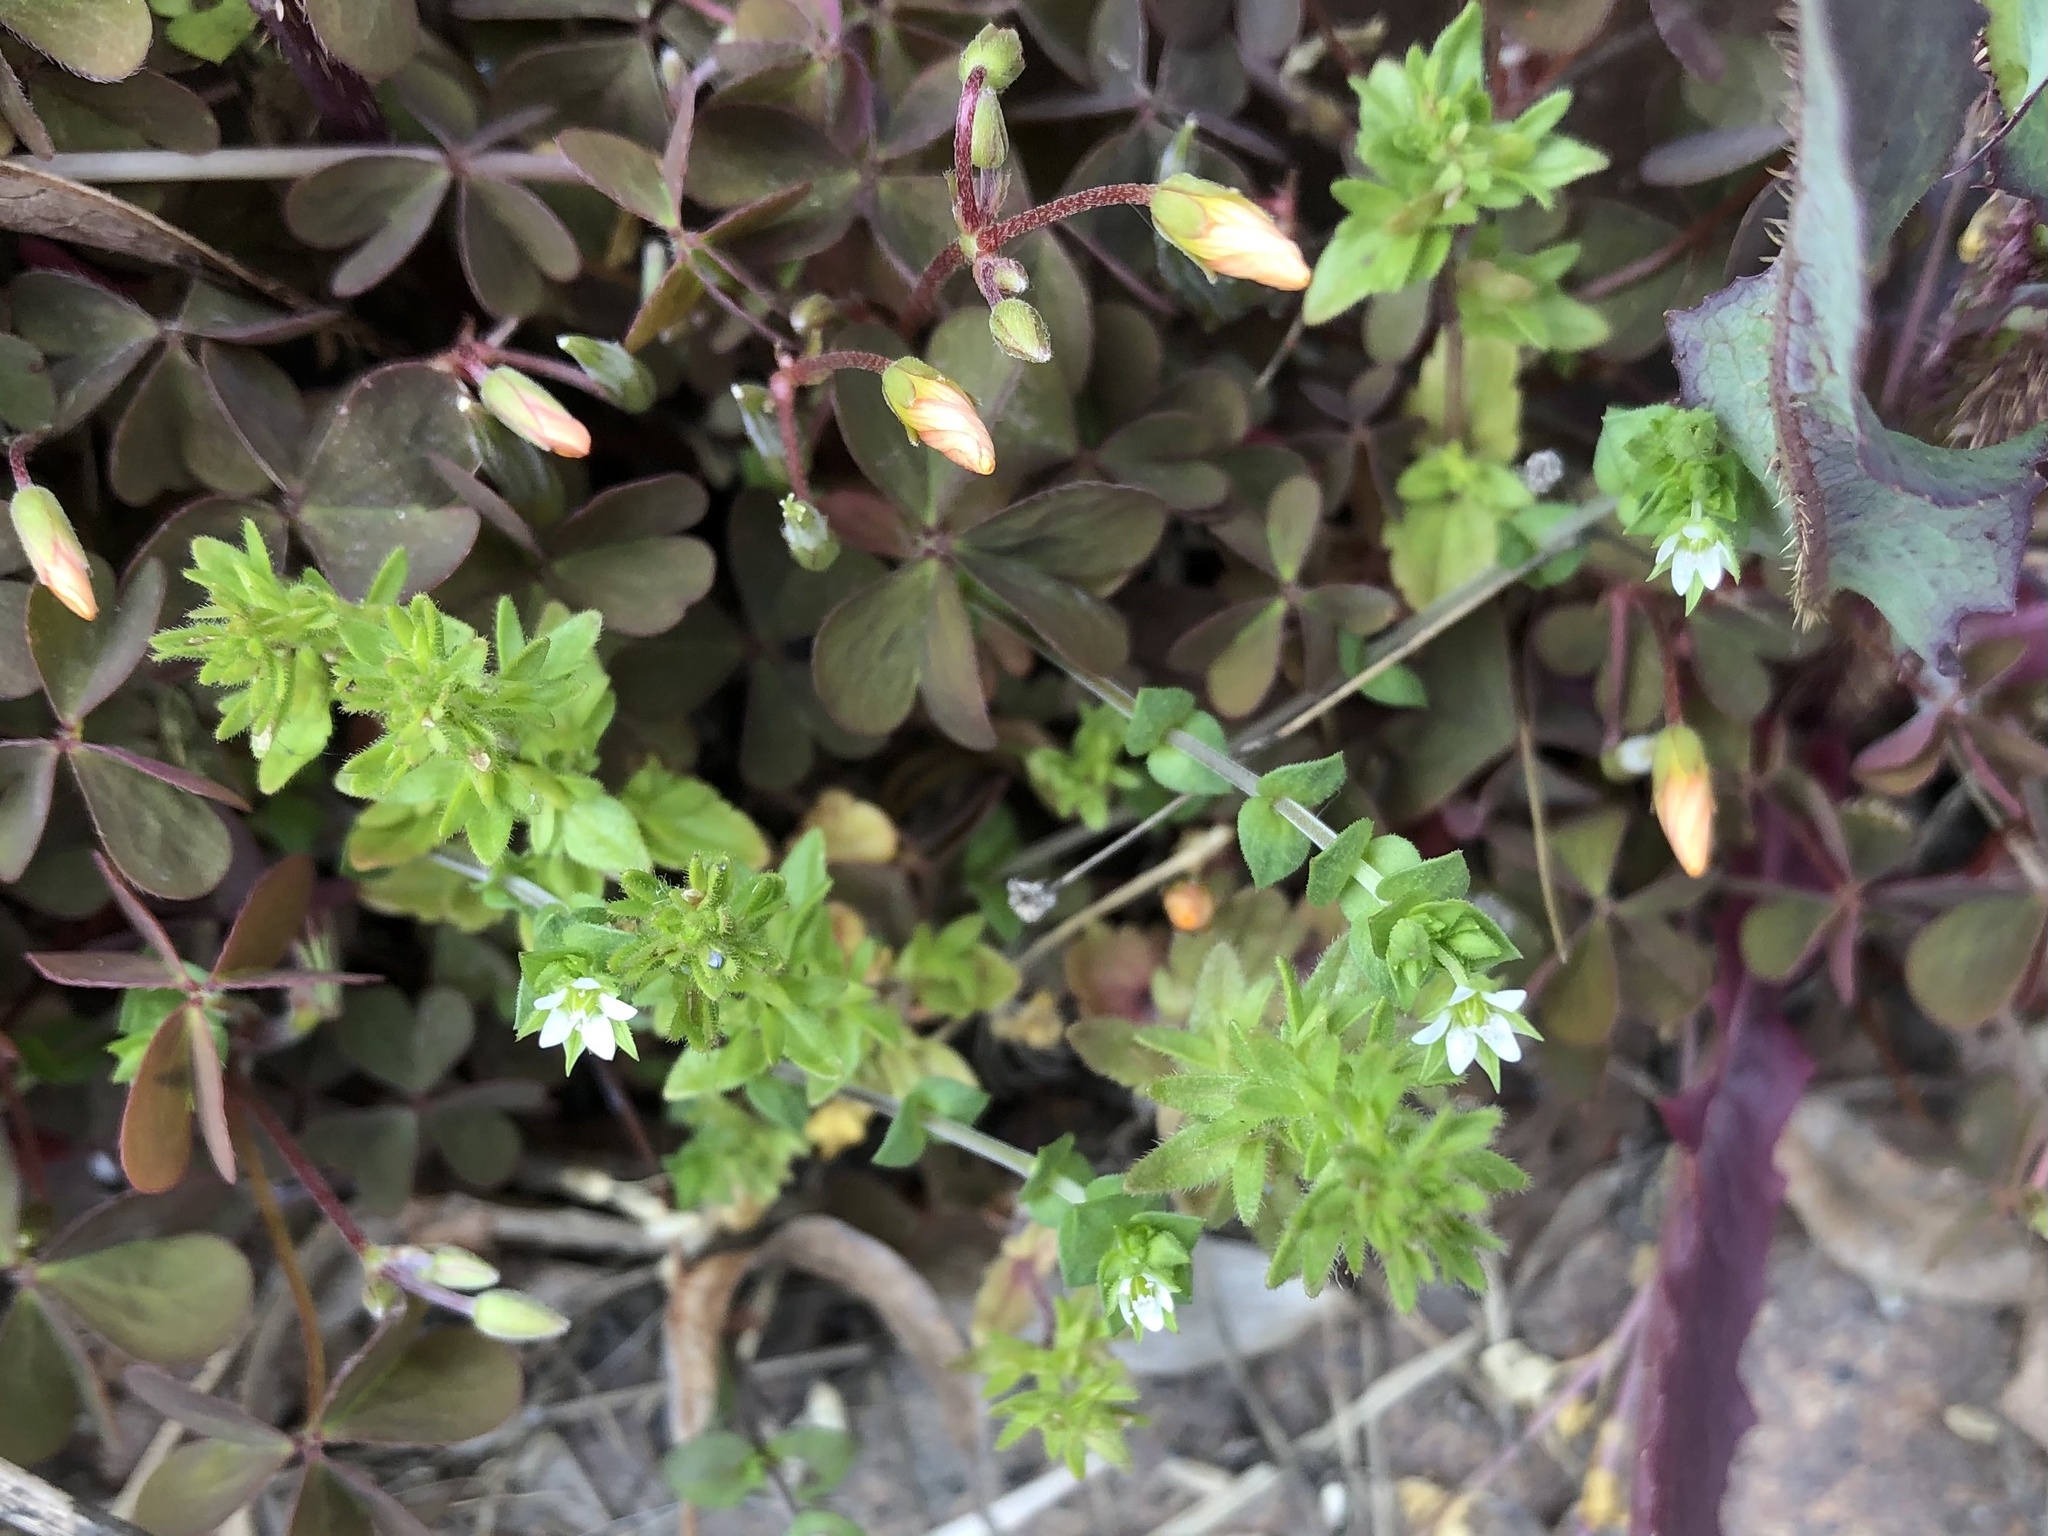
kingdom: Plantae
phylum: Tracheophyta
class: Magnoliopsida
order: Lamiales
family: Plantaginaceae
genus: Veronica
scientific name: Veronica arvensis
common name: Corn speedwell
